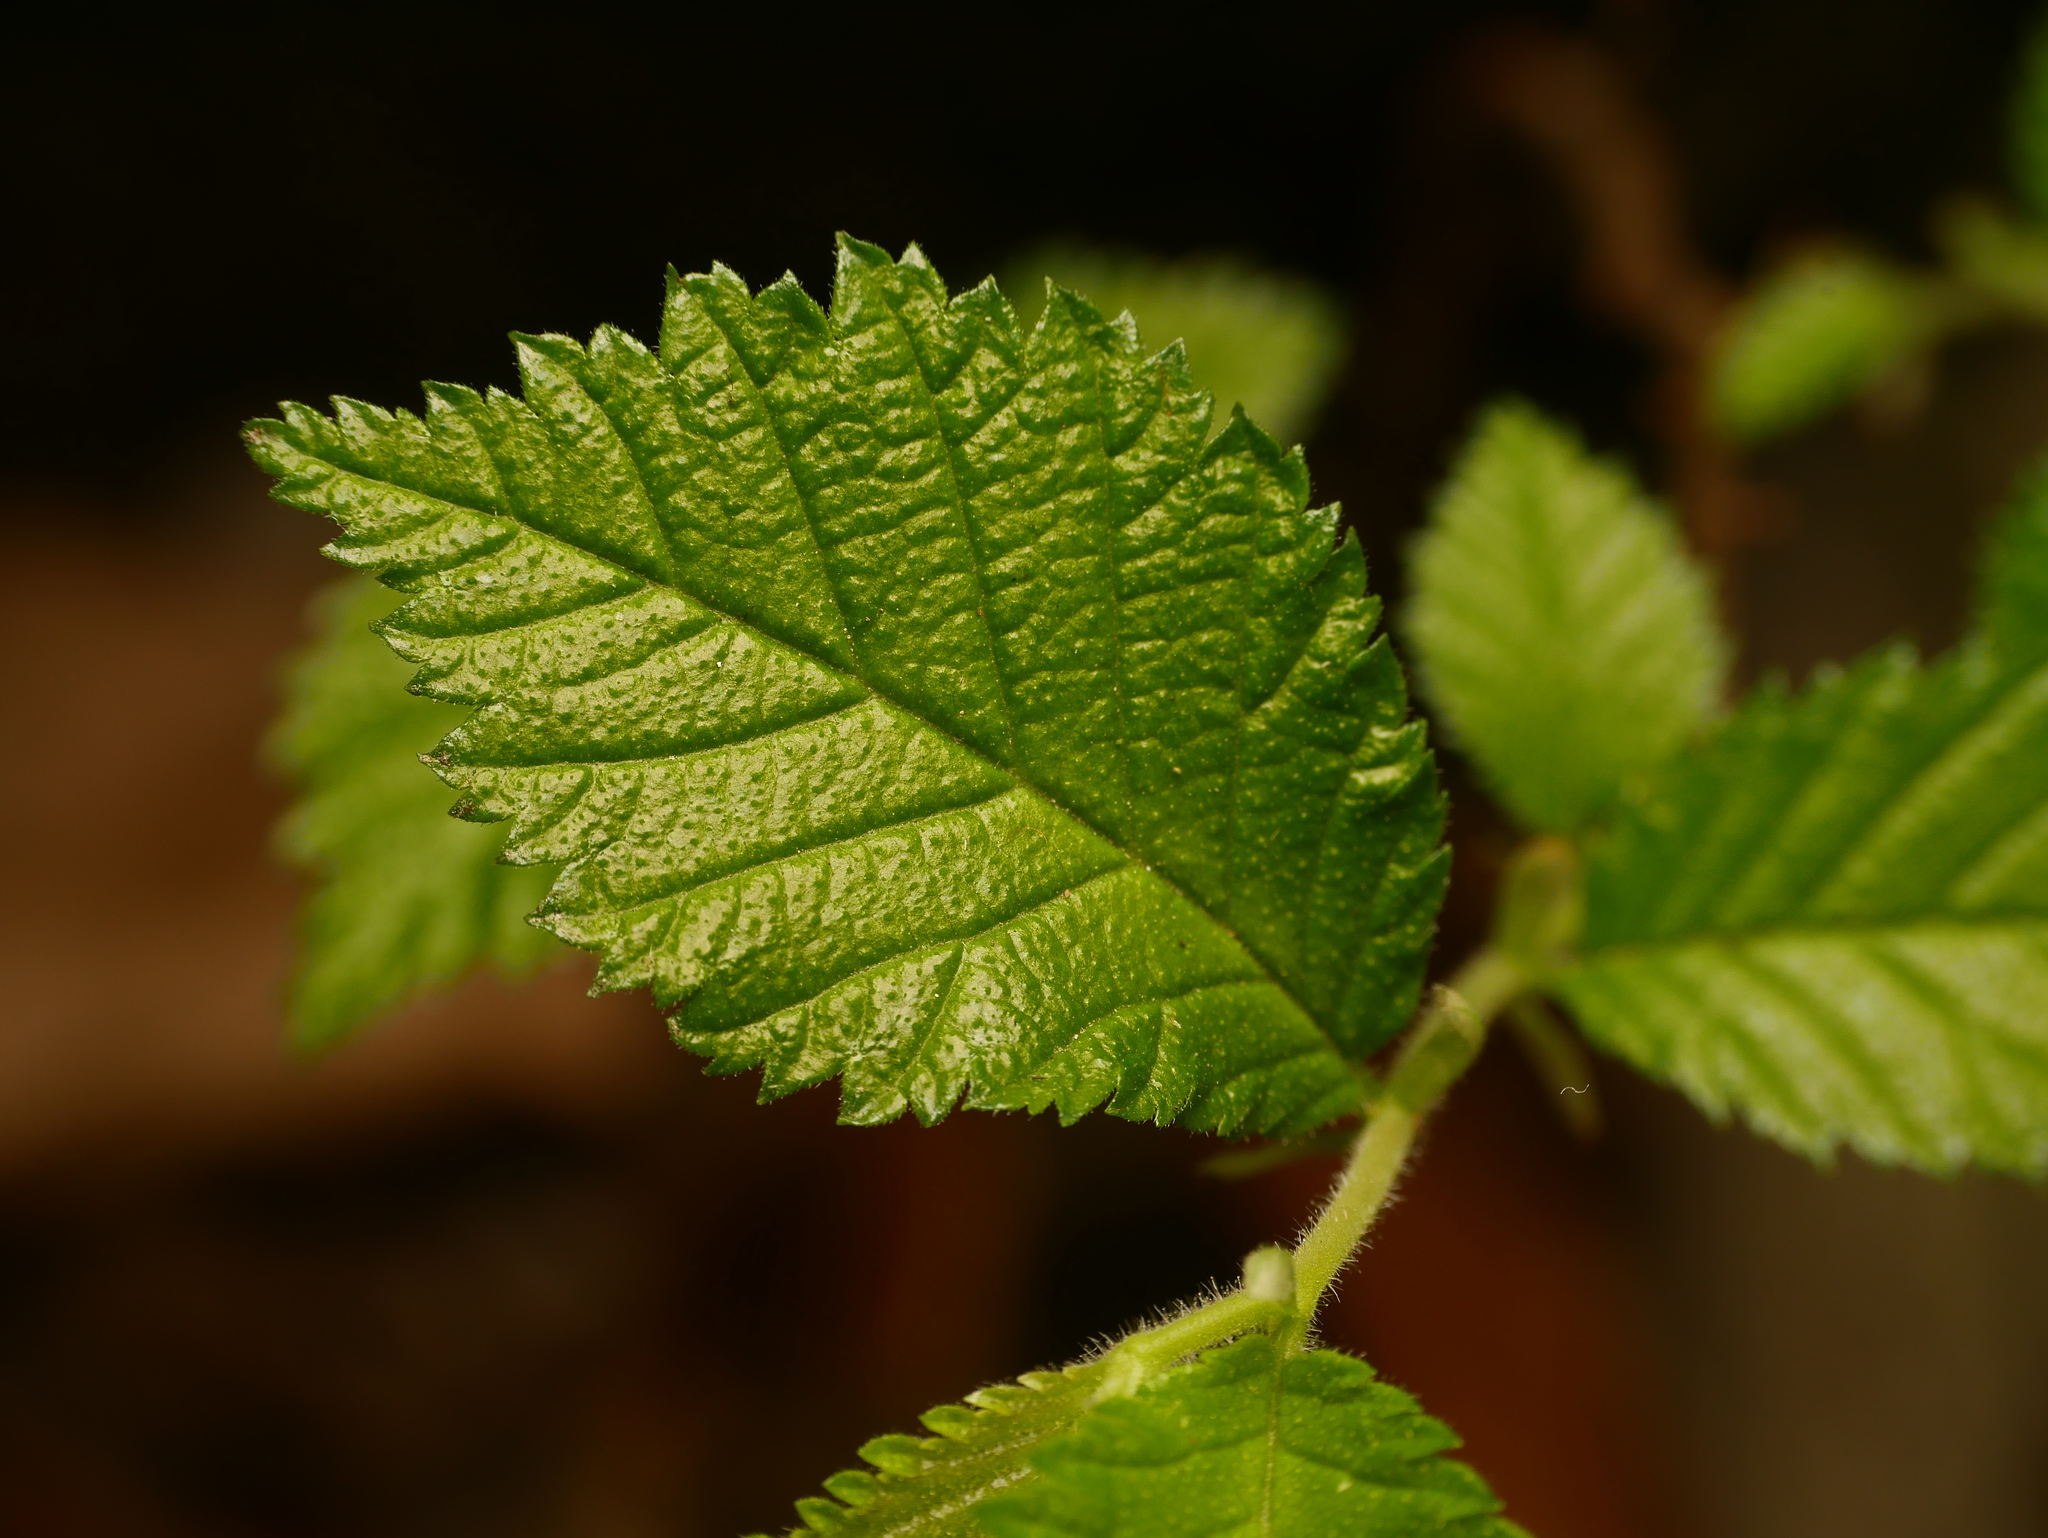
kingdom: Plantae
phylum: Tracheophyta
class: Magnoliopsida
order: Rosales
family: Ulmaceae
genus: Ulmus
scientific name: Ulmus minor
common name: Small-leaved elm
